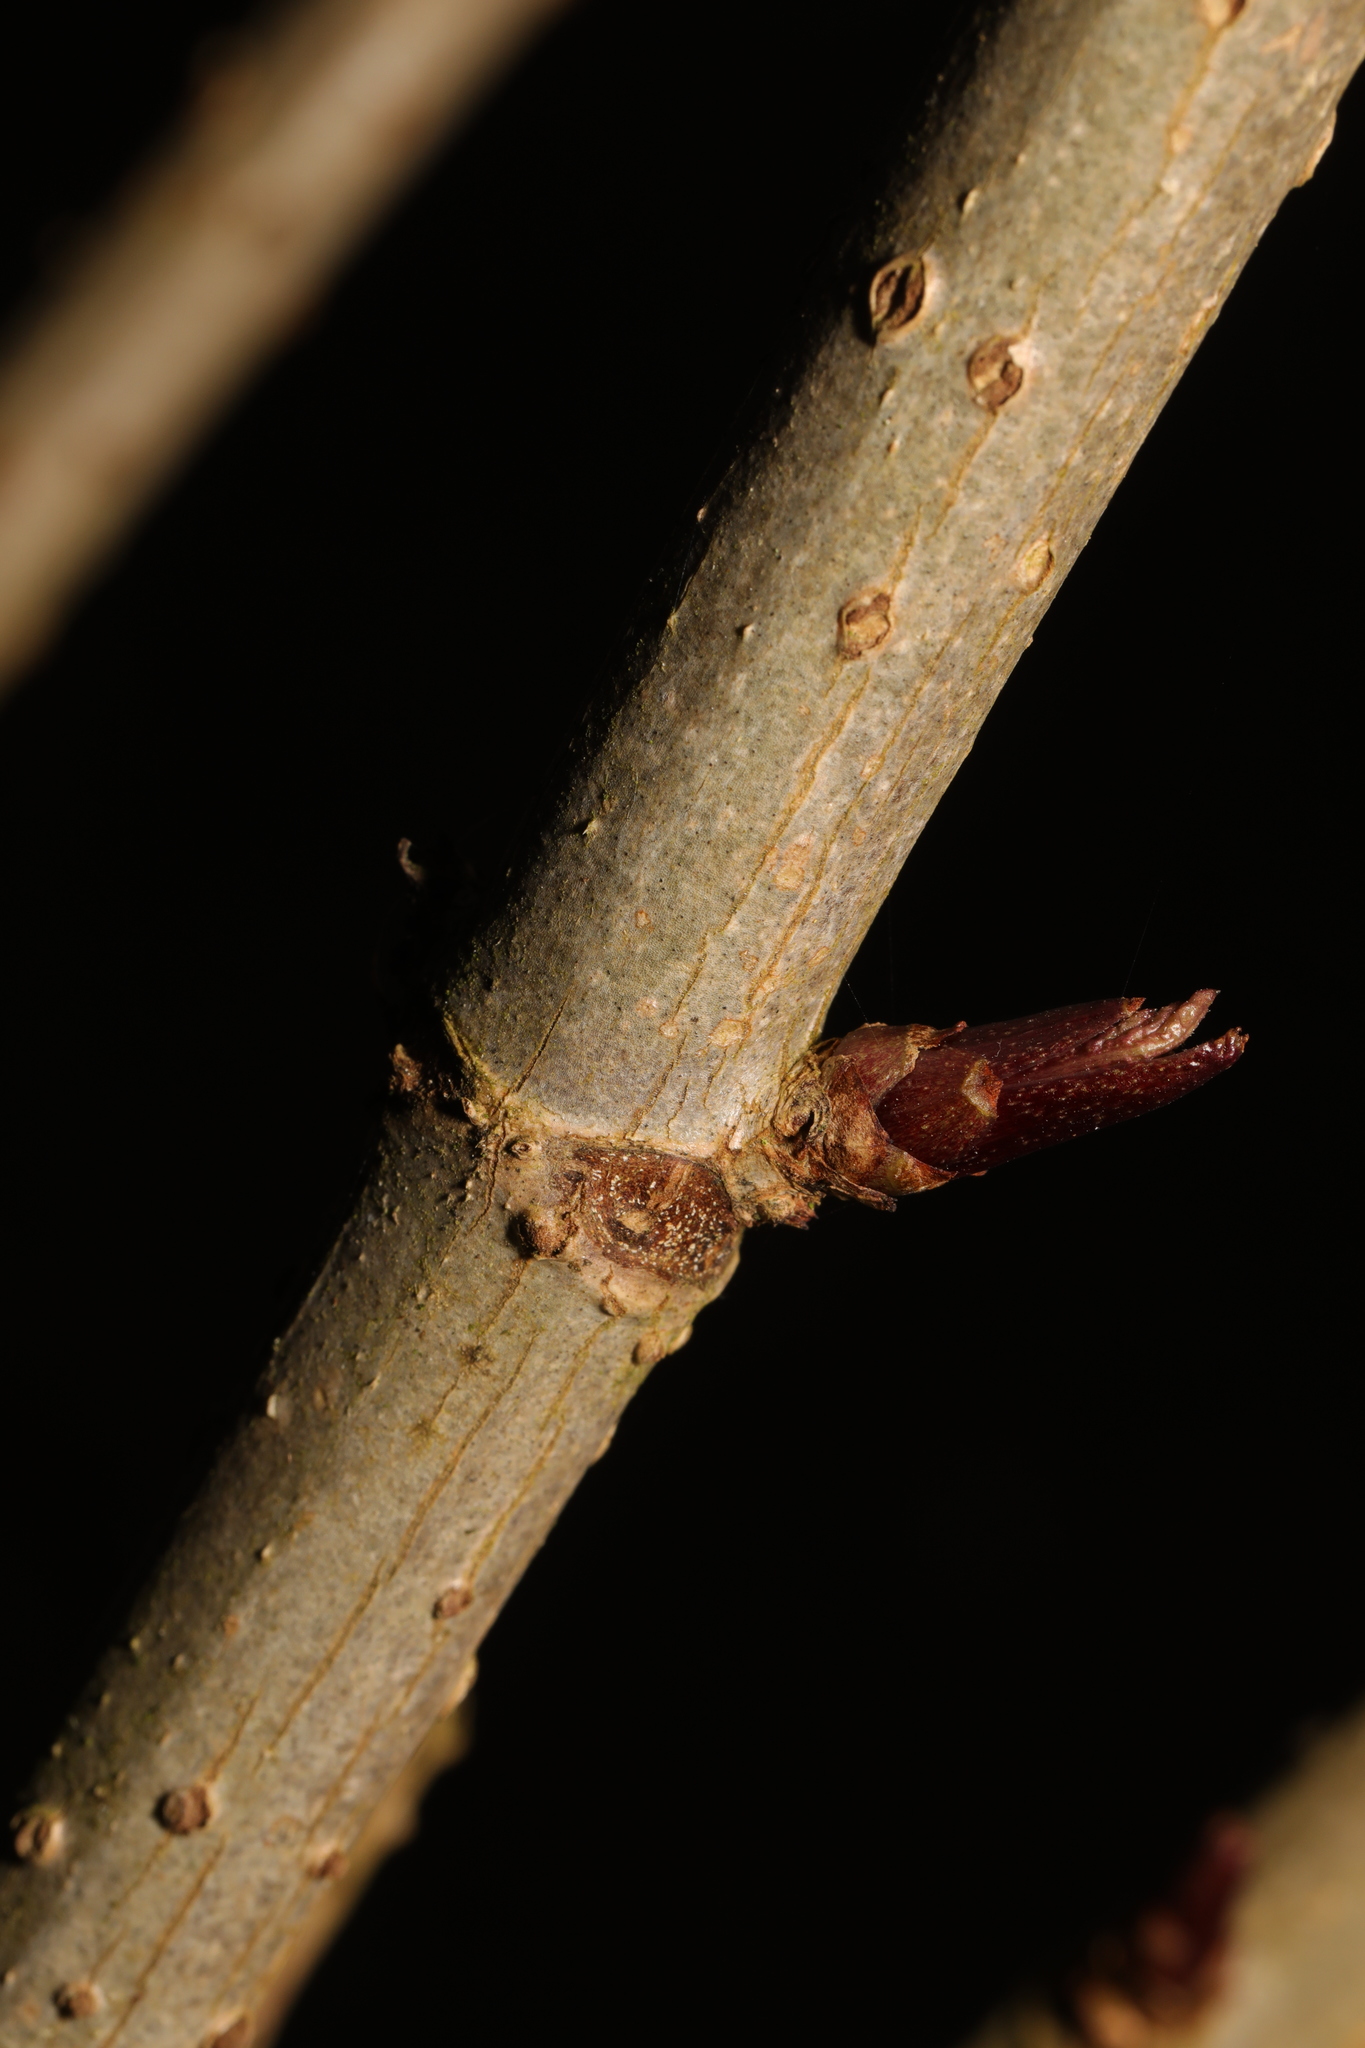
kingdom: Plantae
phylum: Tracheophyta
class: Magnoliopsida
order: Dipsacales
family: Viburnaceae
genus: Sambucus
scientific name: Sambucus nigra
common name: Elder
